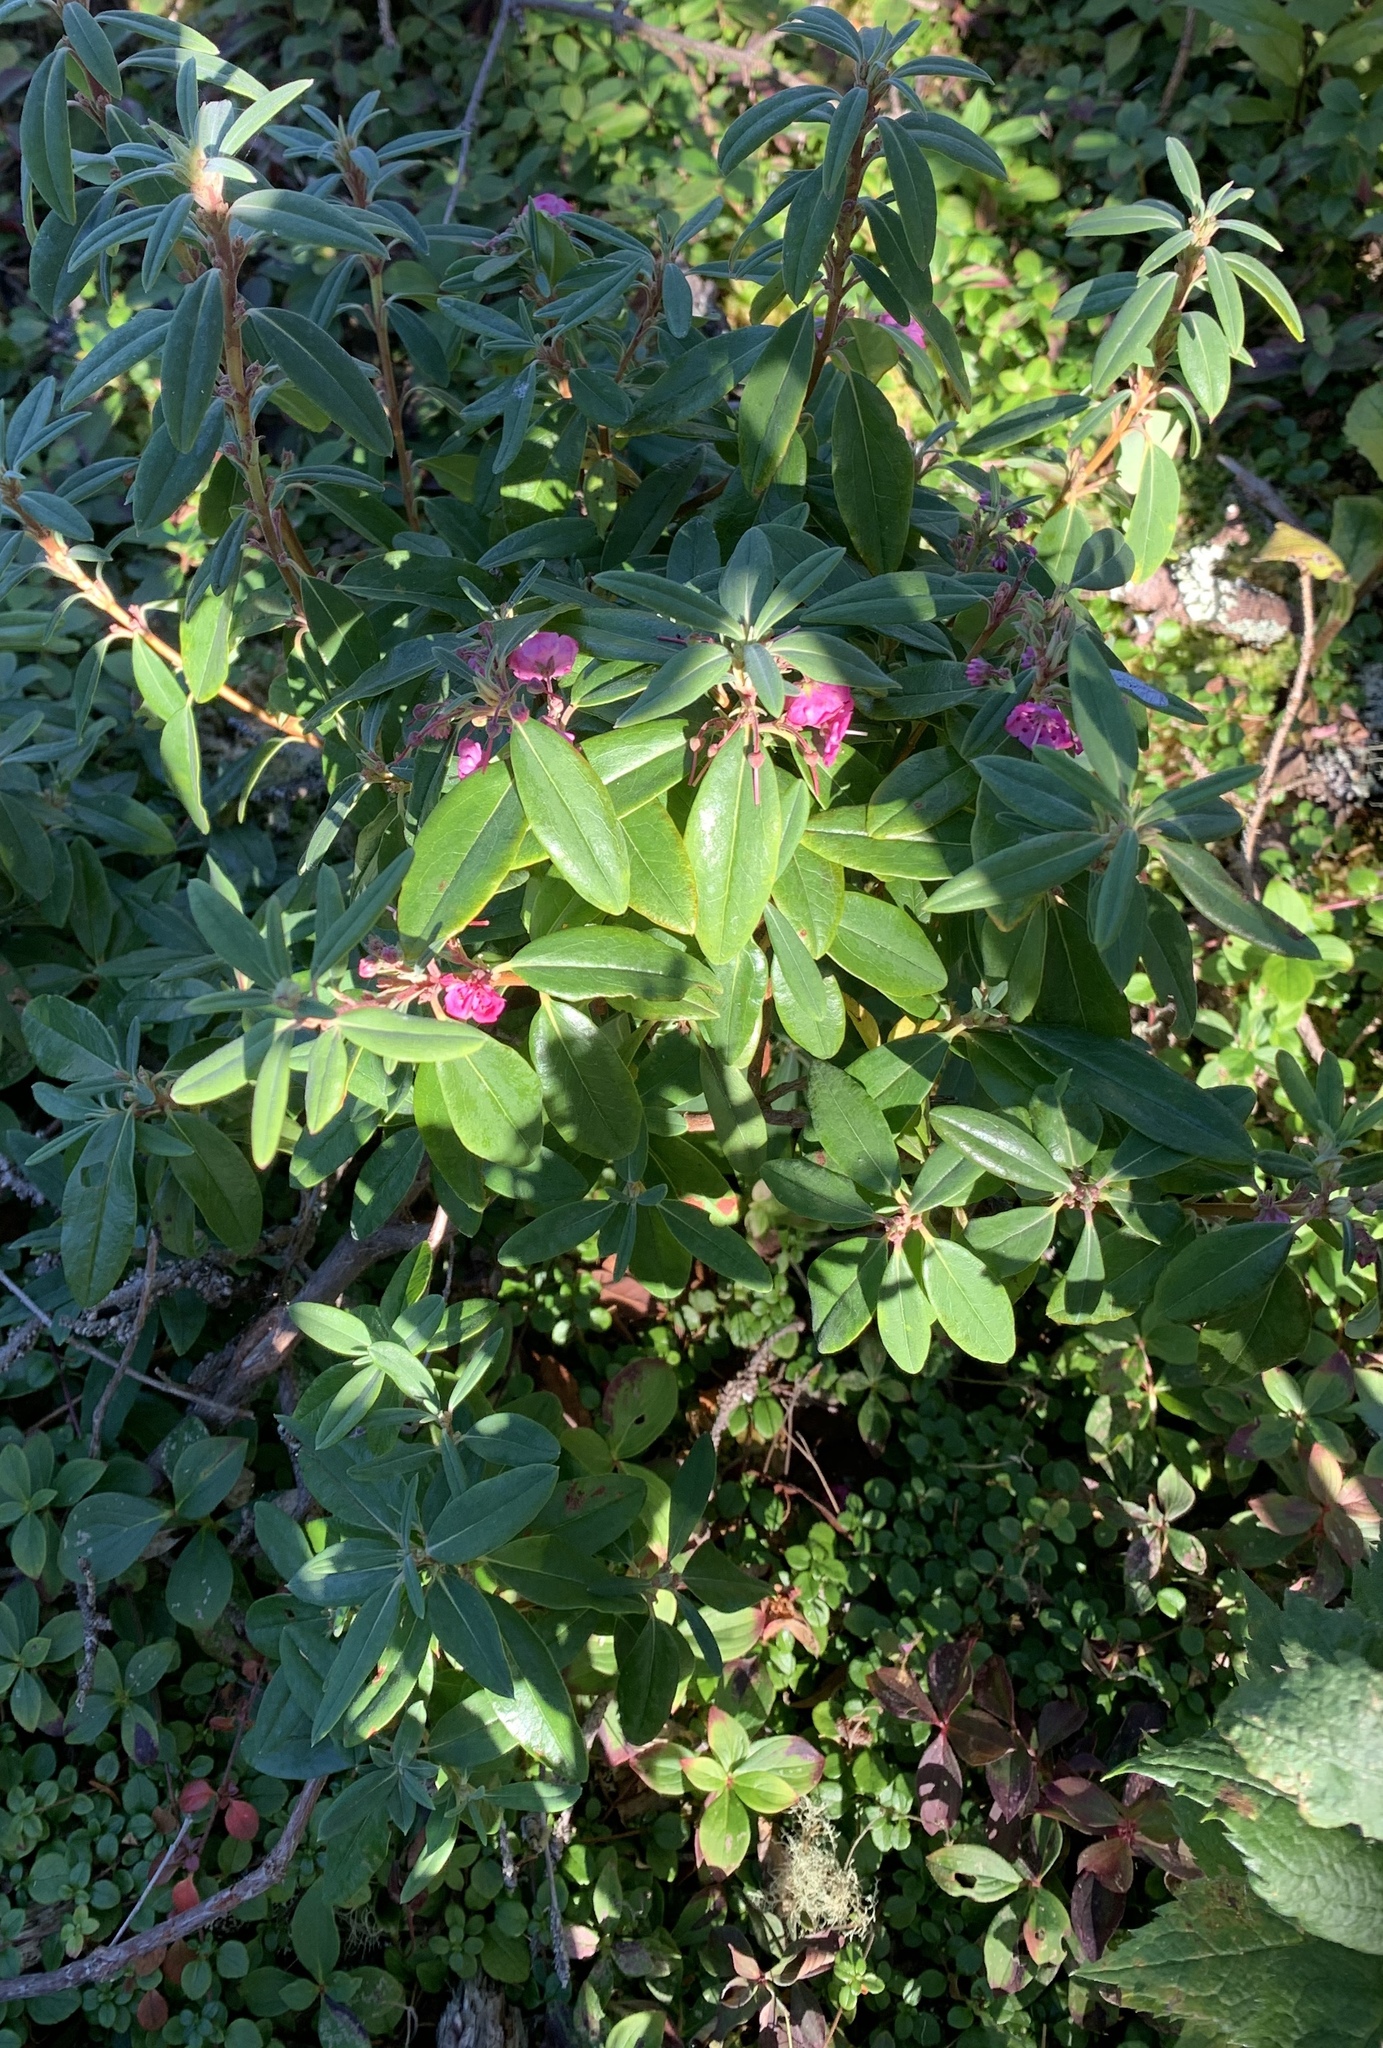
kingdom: Plantae
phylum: Tracheophyta
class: Magnoliopsida
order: Ericales
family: Ericaceae
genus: Kalmia
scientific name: Kalmia angustifolia
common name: Sheep-laurel
